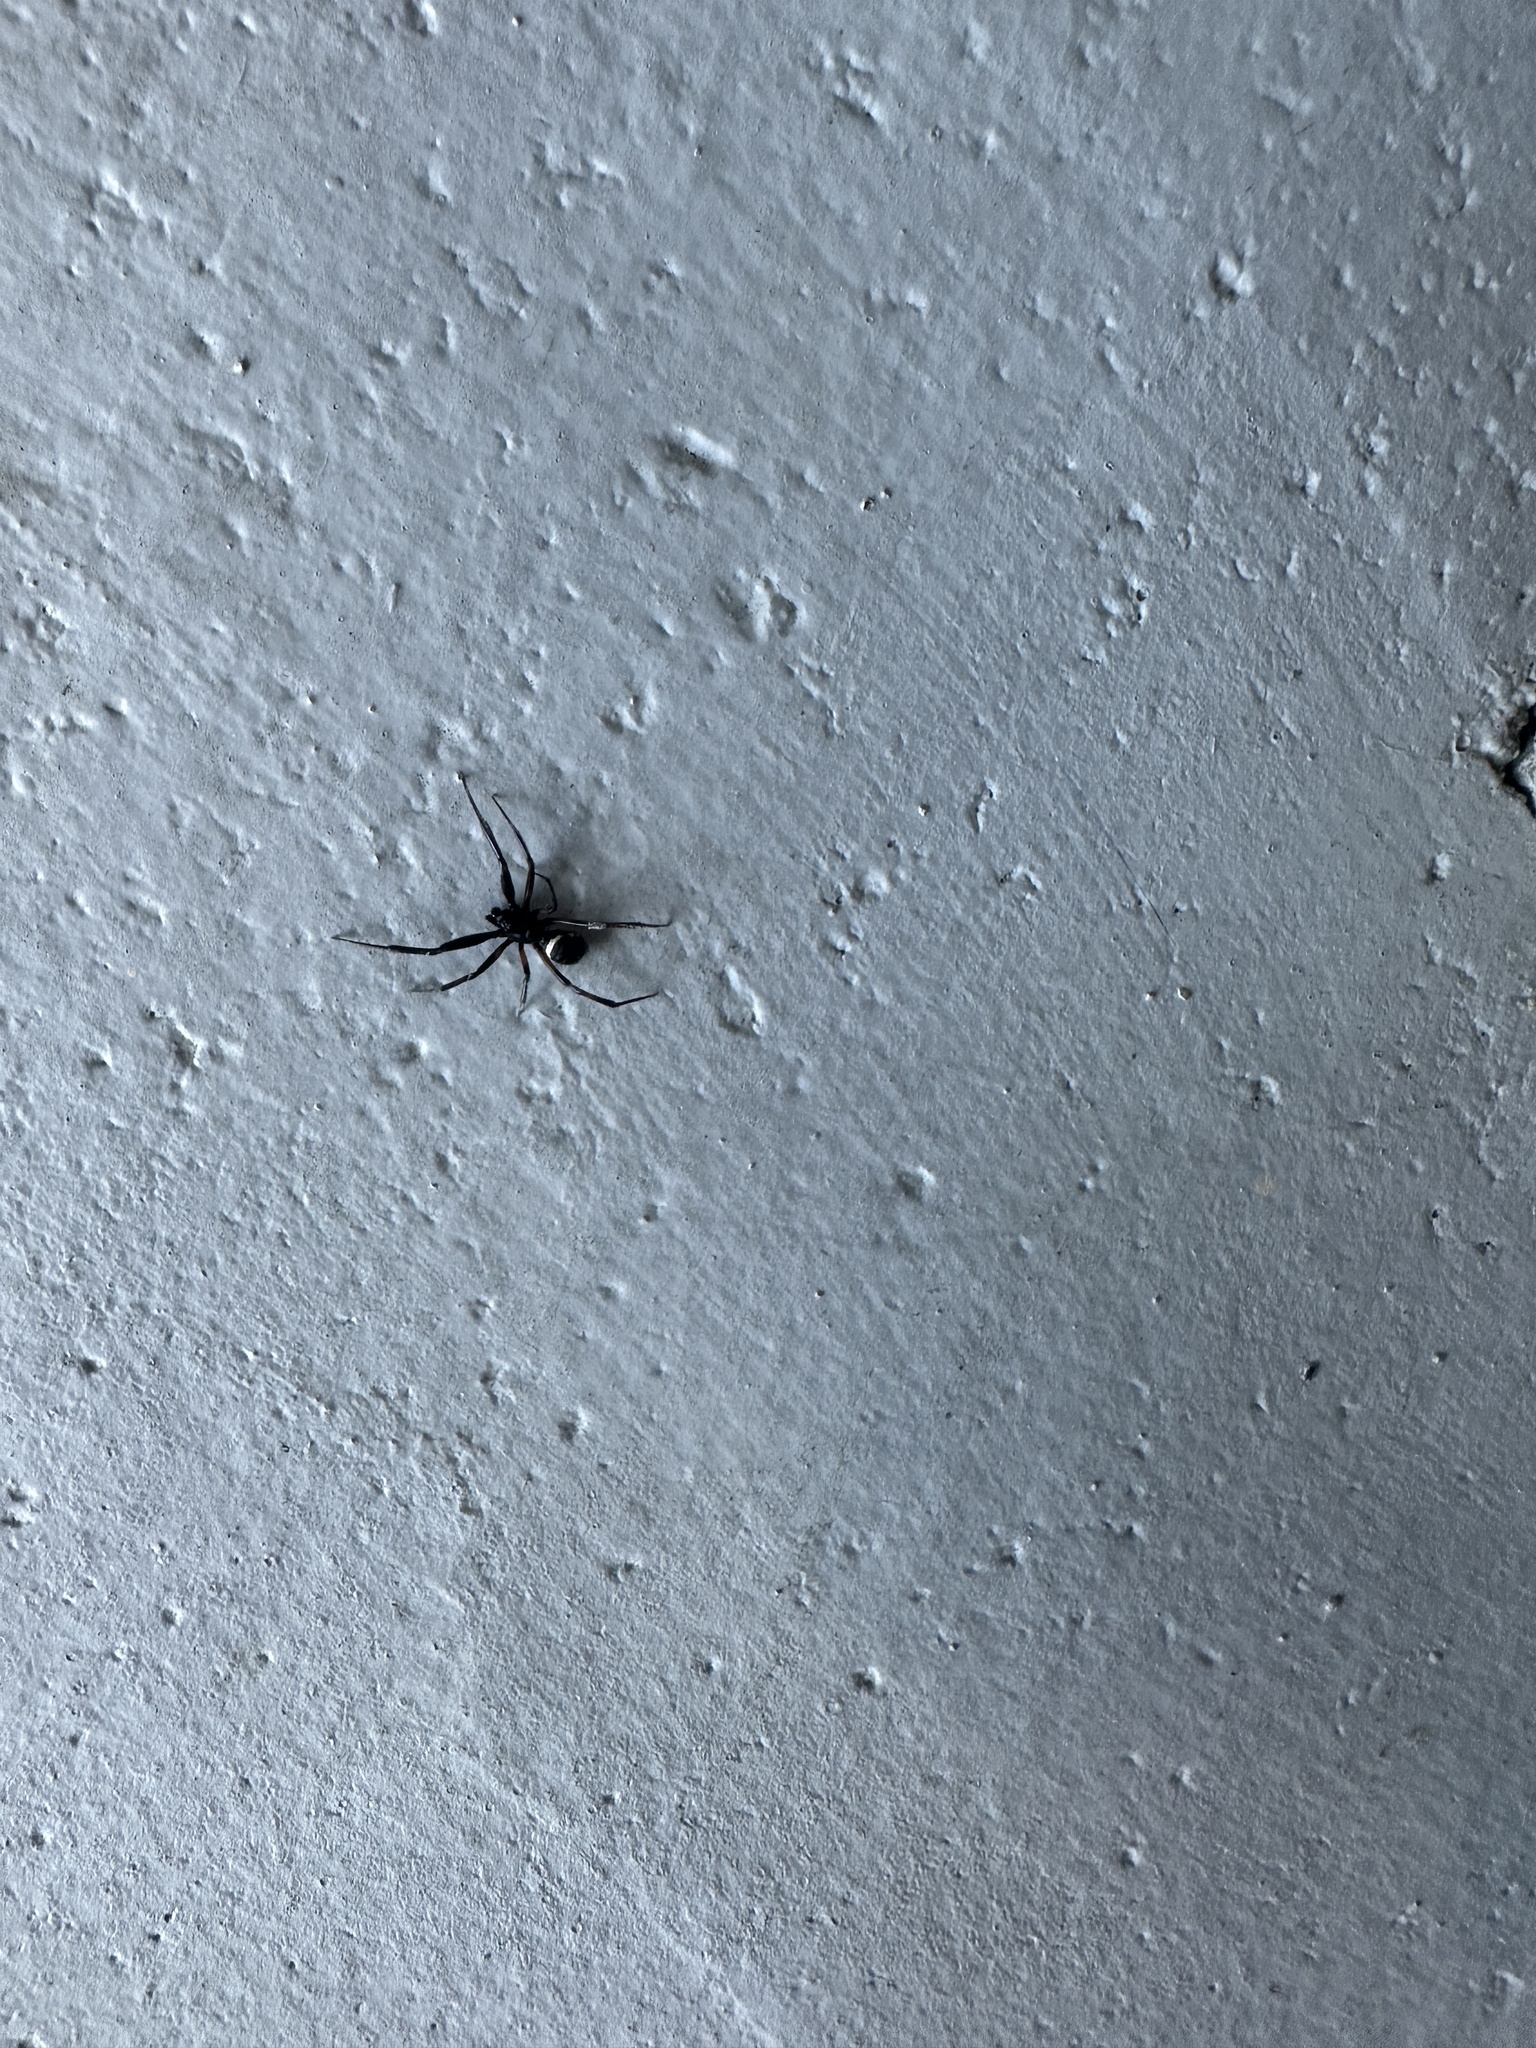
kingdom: Animalia
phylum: Arthropoda
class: Arachnida
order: Araneae
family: Theridiidae
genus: Steatoda
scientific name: Steatoda cingulata
